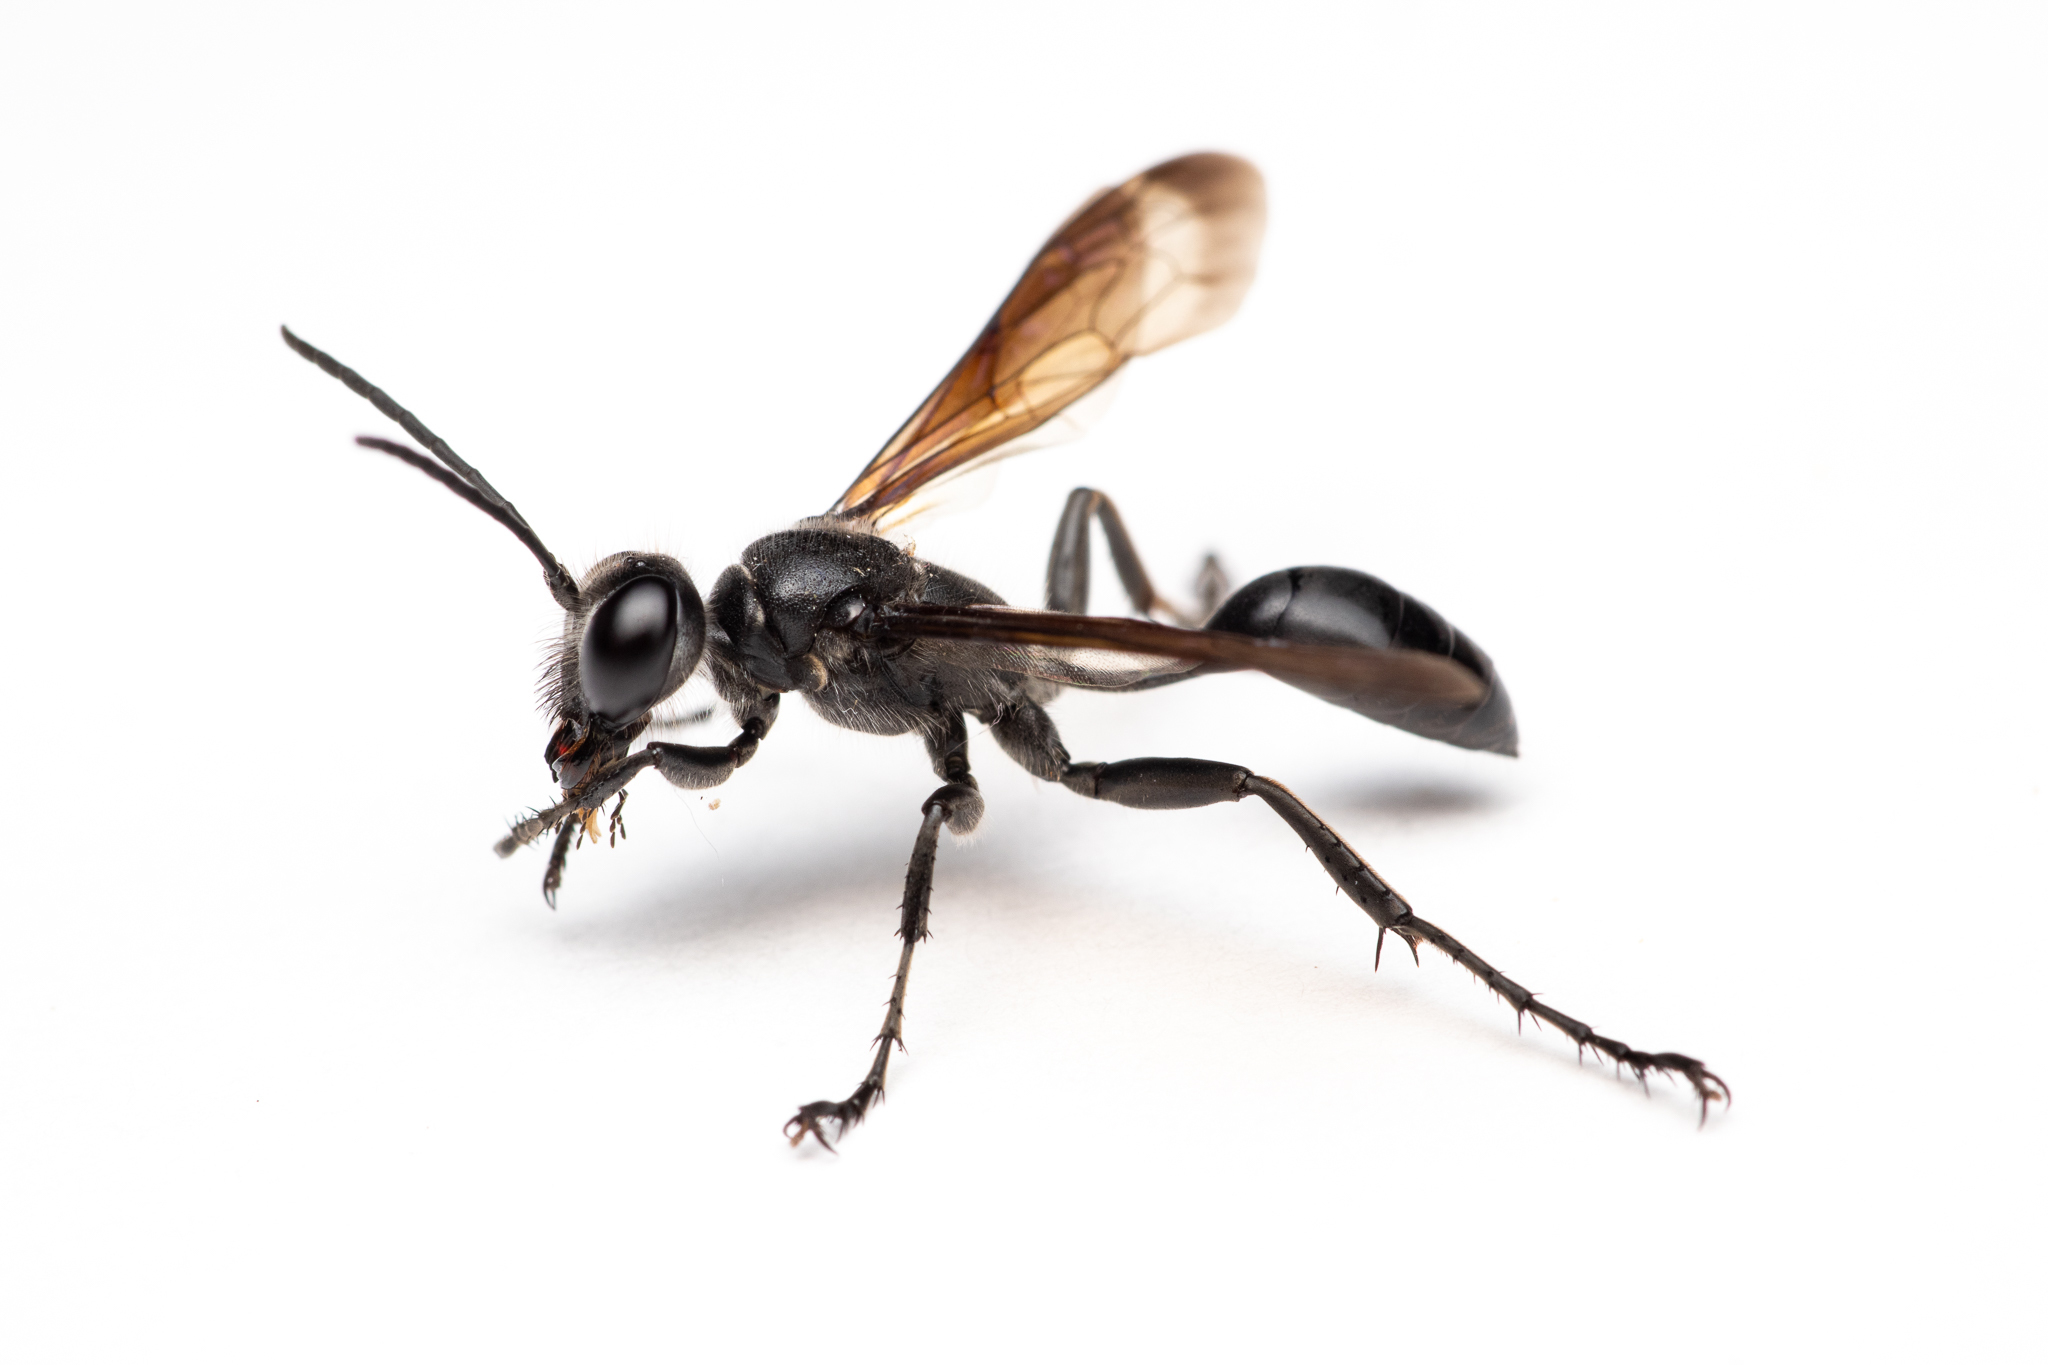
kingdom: Animalia
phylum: Arthropoda
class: Insecta
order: Hymenoptera
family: Sphecidae
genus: Isodontia
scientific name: Isodontia mexicana
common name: Mud dauber
